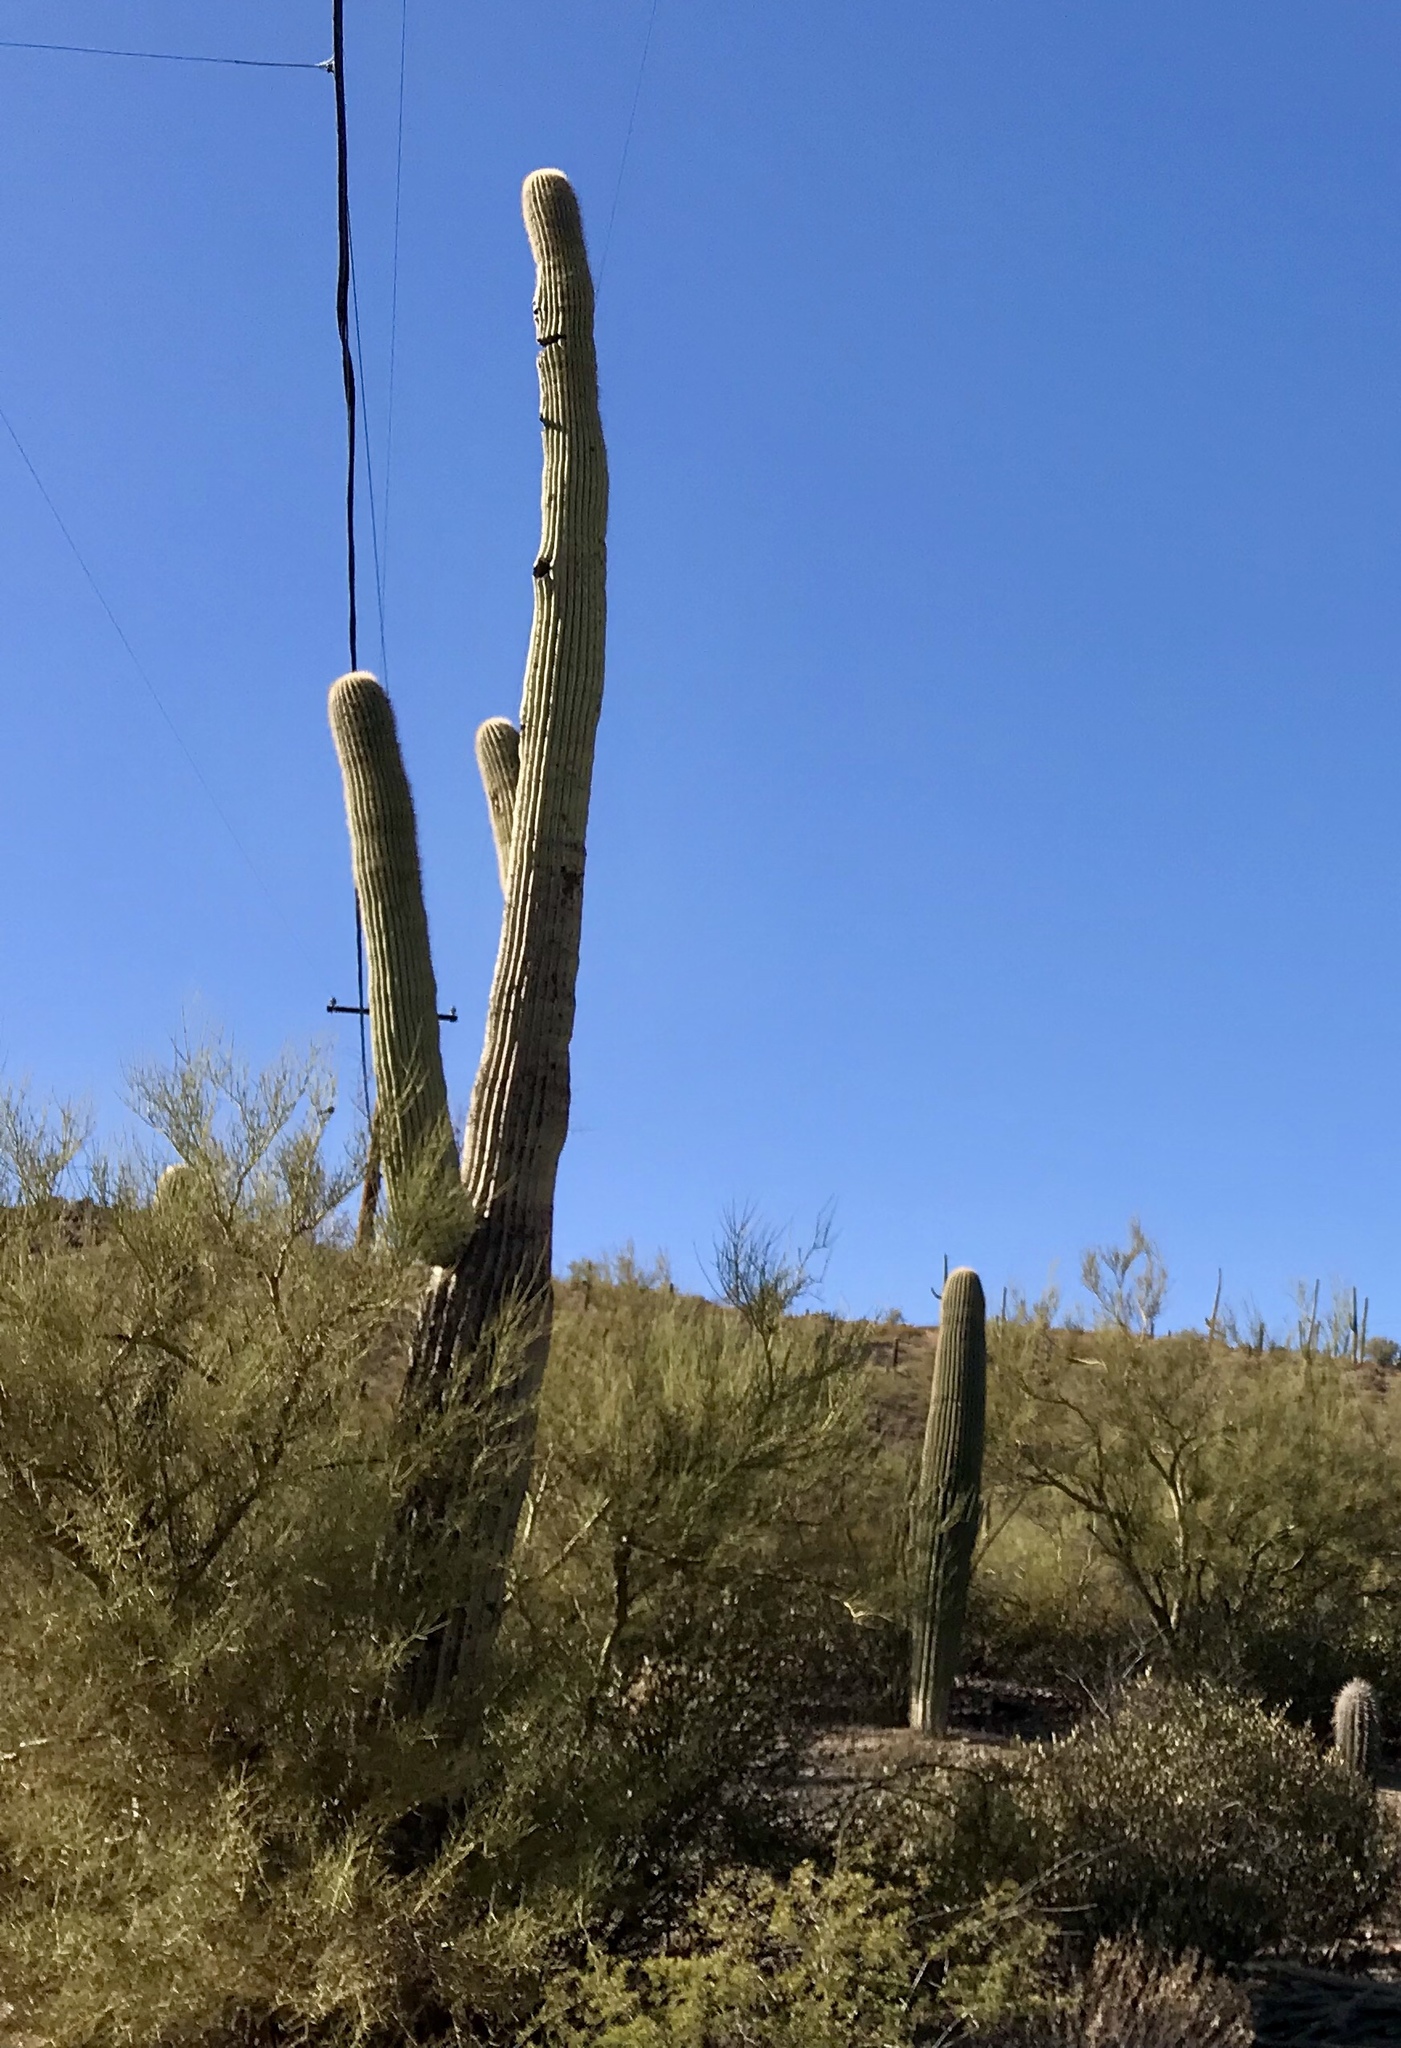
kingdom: Plantae
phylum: Tracheophyta
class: Magnoliopsida
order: Caryophyllales
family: Cactaceae
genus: Carnegiea
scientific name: Carnegiea gigantea
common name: Saguaro
